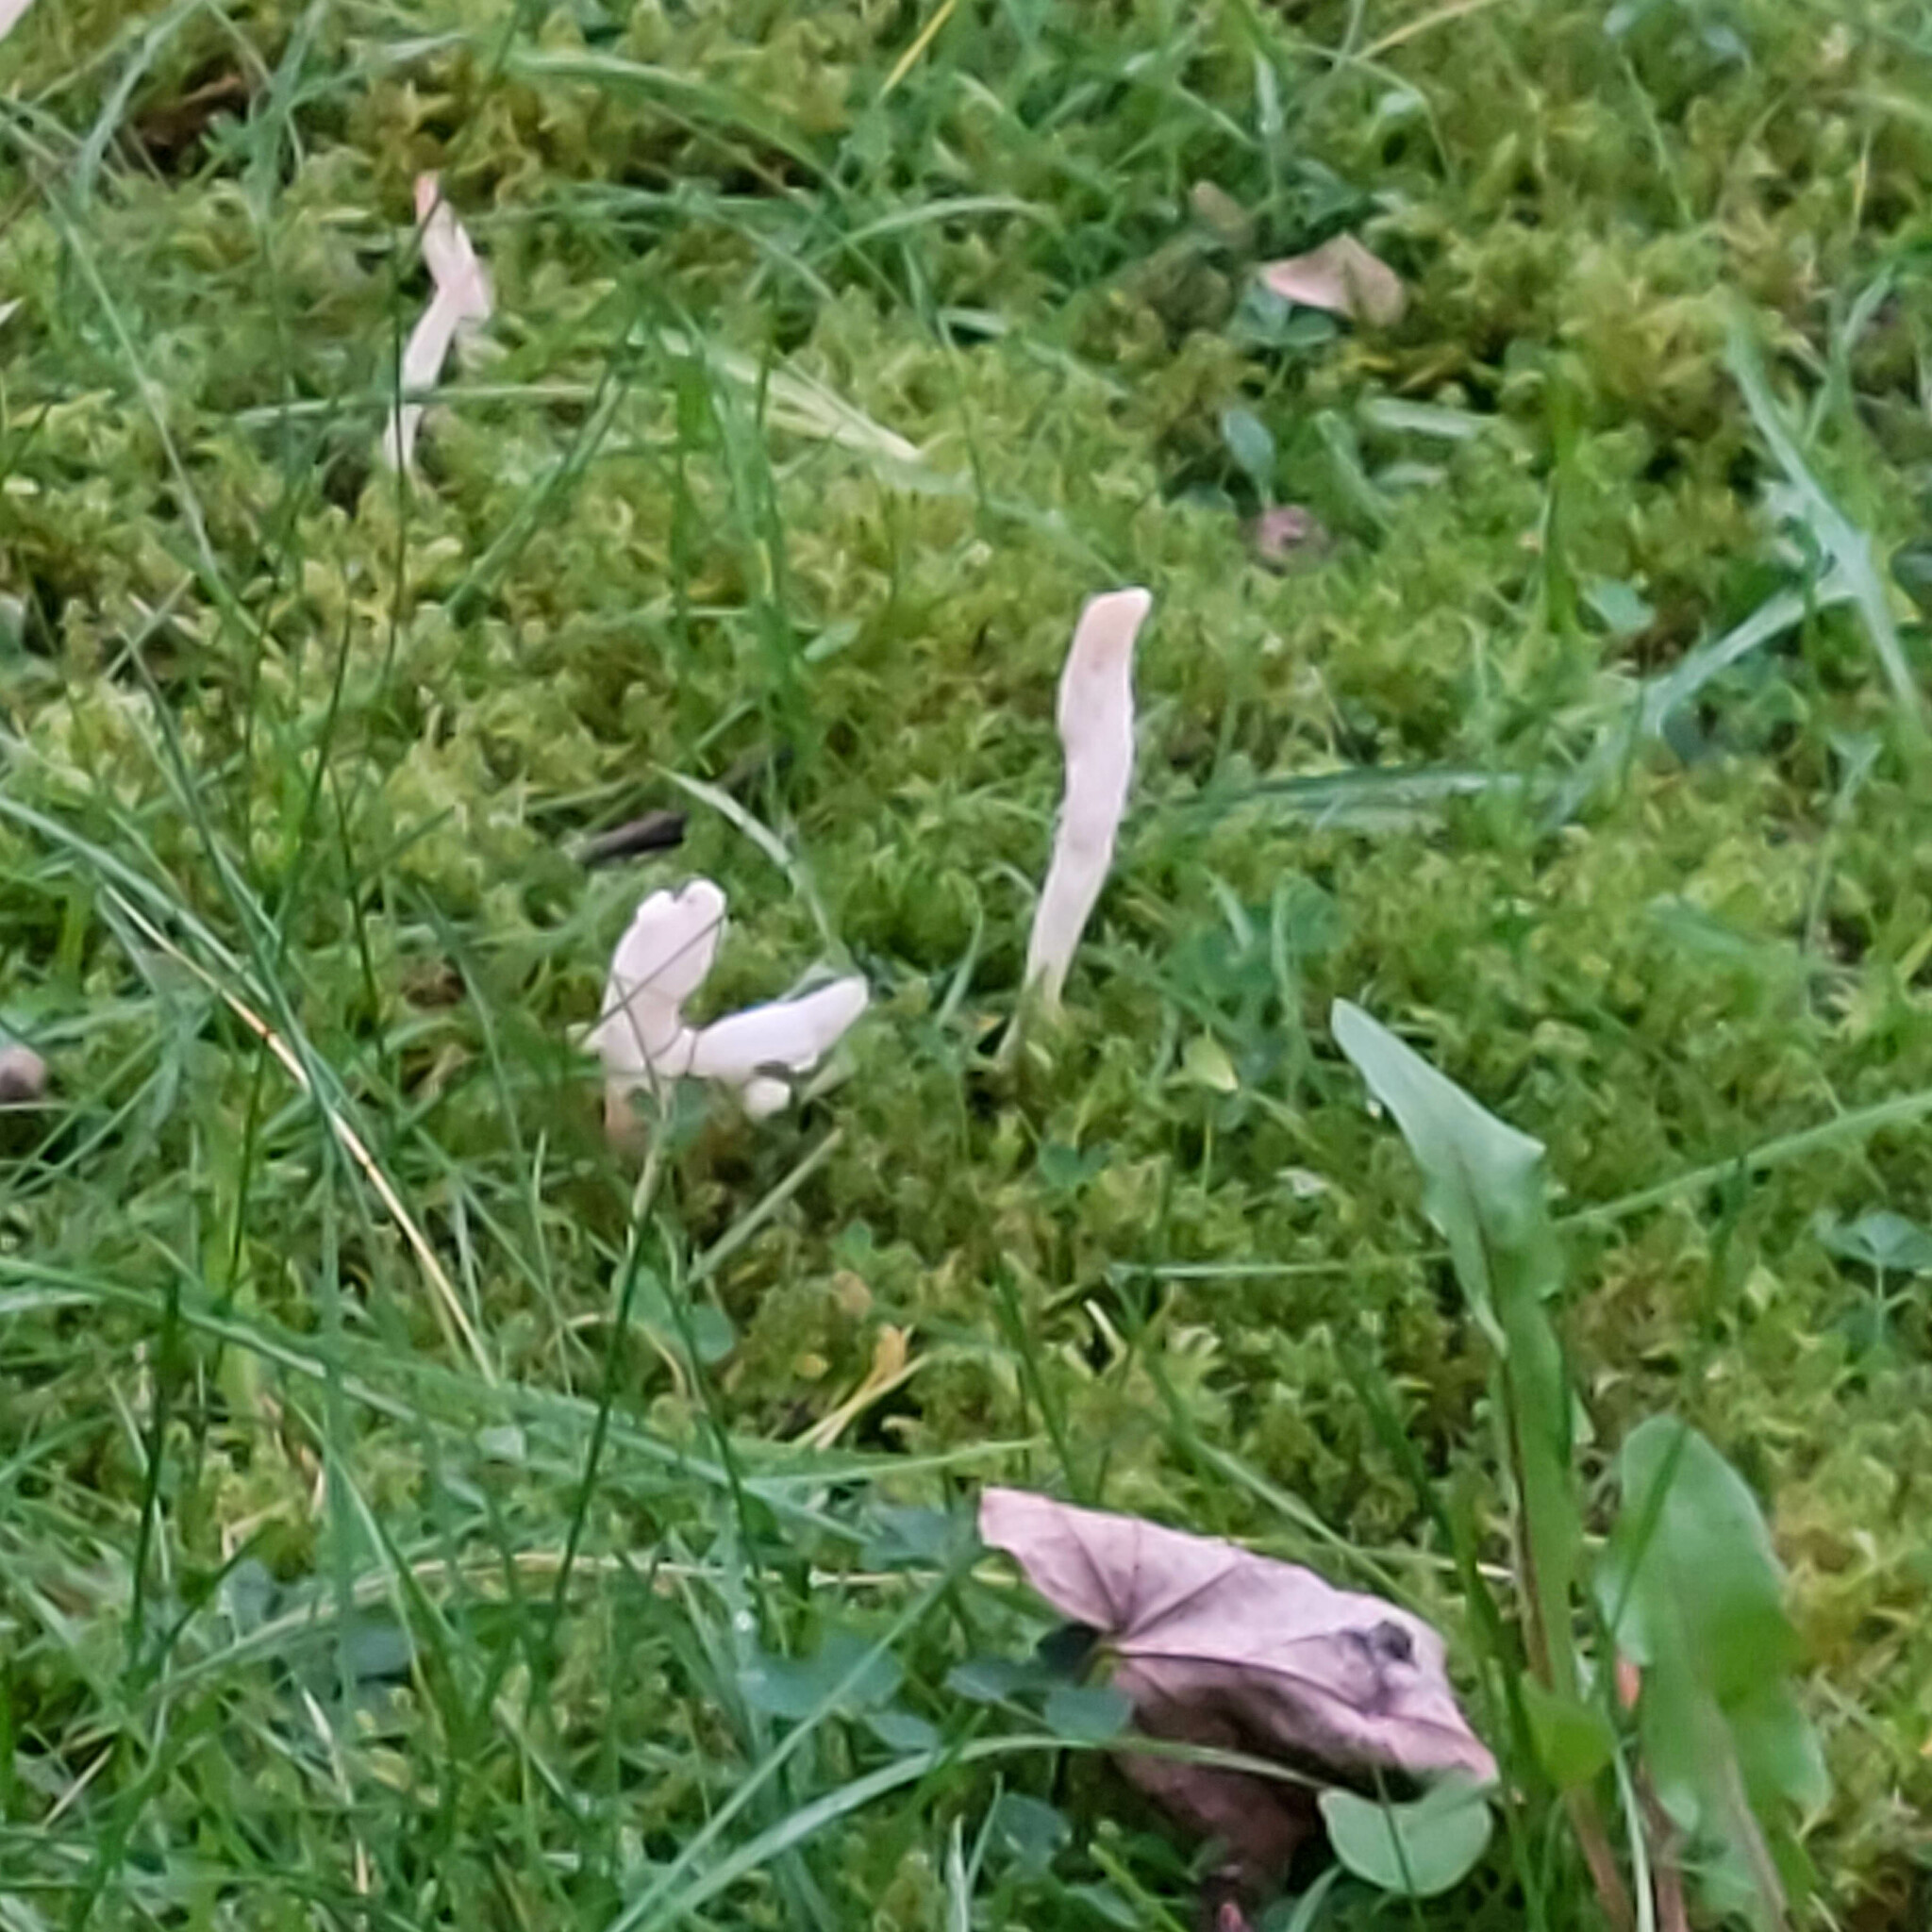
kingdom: Fungi
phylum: Basidiomycota
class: Agaricomycetes
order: Cantharellales
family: Hydnaceae
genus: Clavulina
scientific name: Clavulina rugosa
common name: Wrinkled club
